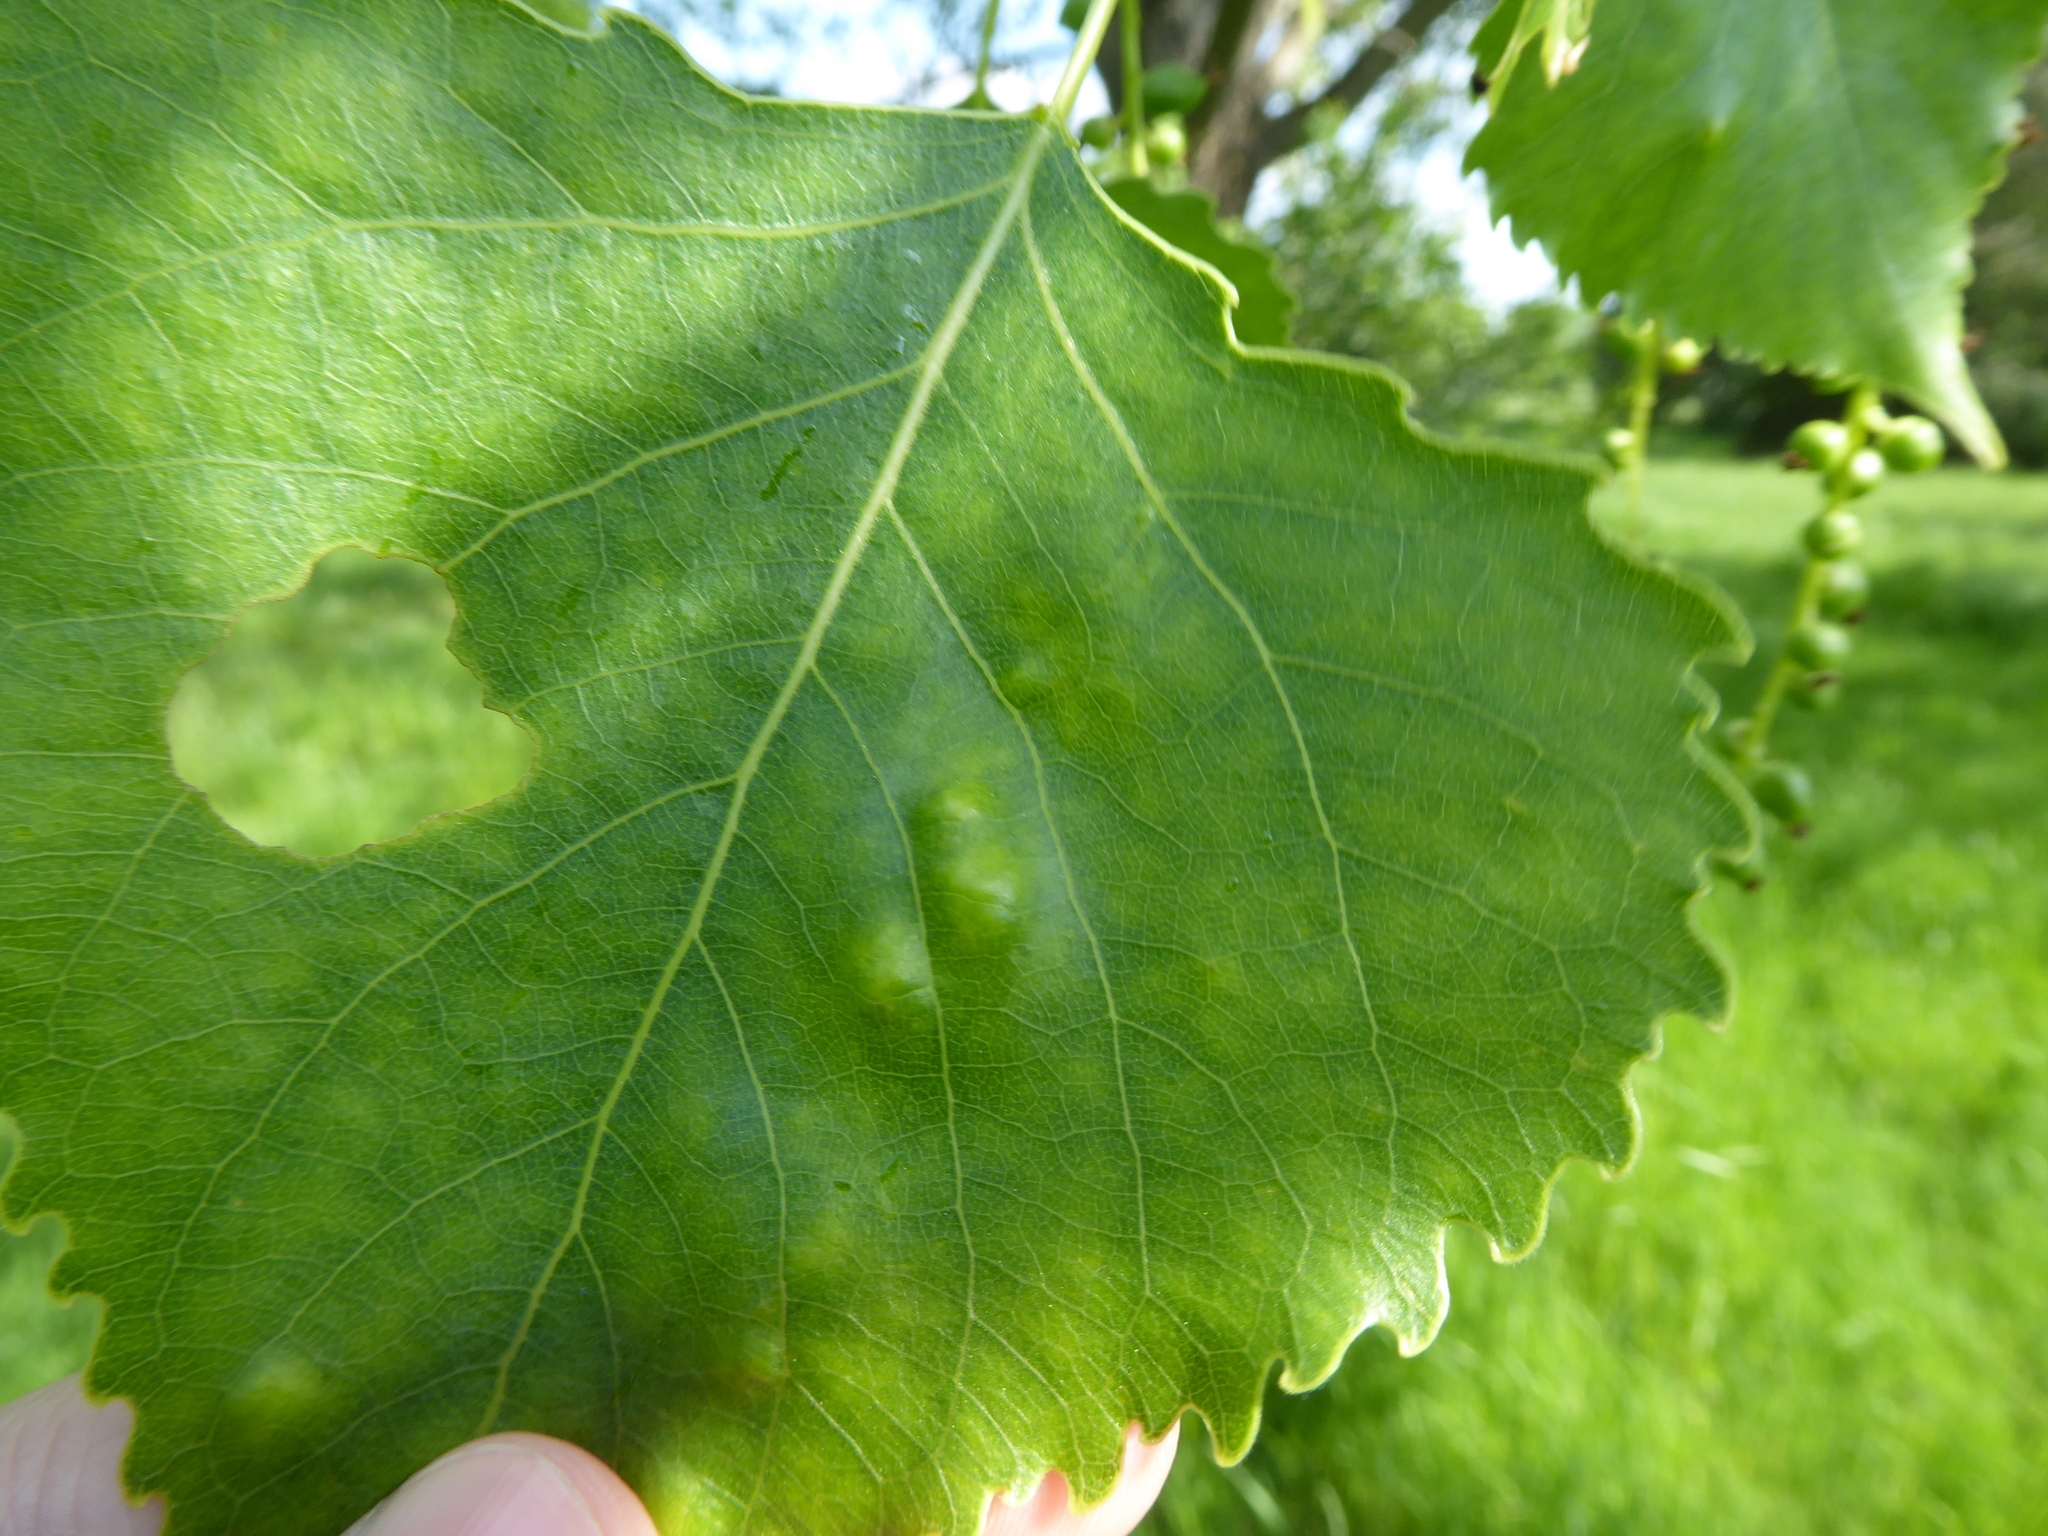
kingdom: Fungi
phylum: Ascomycota
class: Taphrinomycetes
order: Taphrinales
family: Taphrinaceae
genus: Taphrina
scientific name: Taphrina populina
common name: Poplar leaf curl
